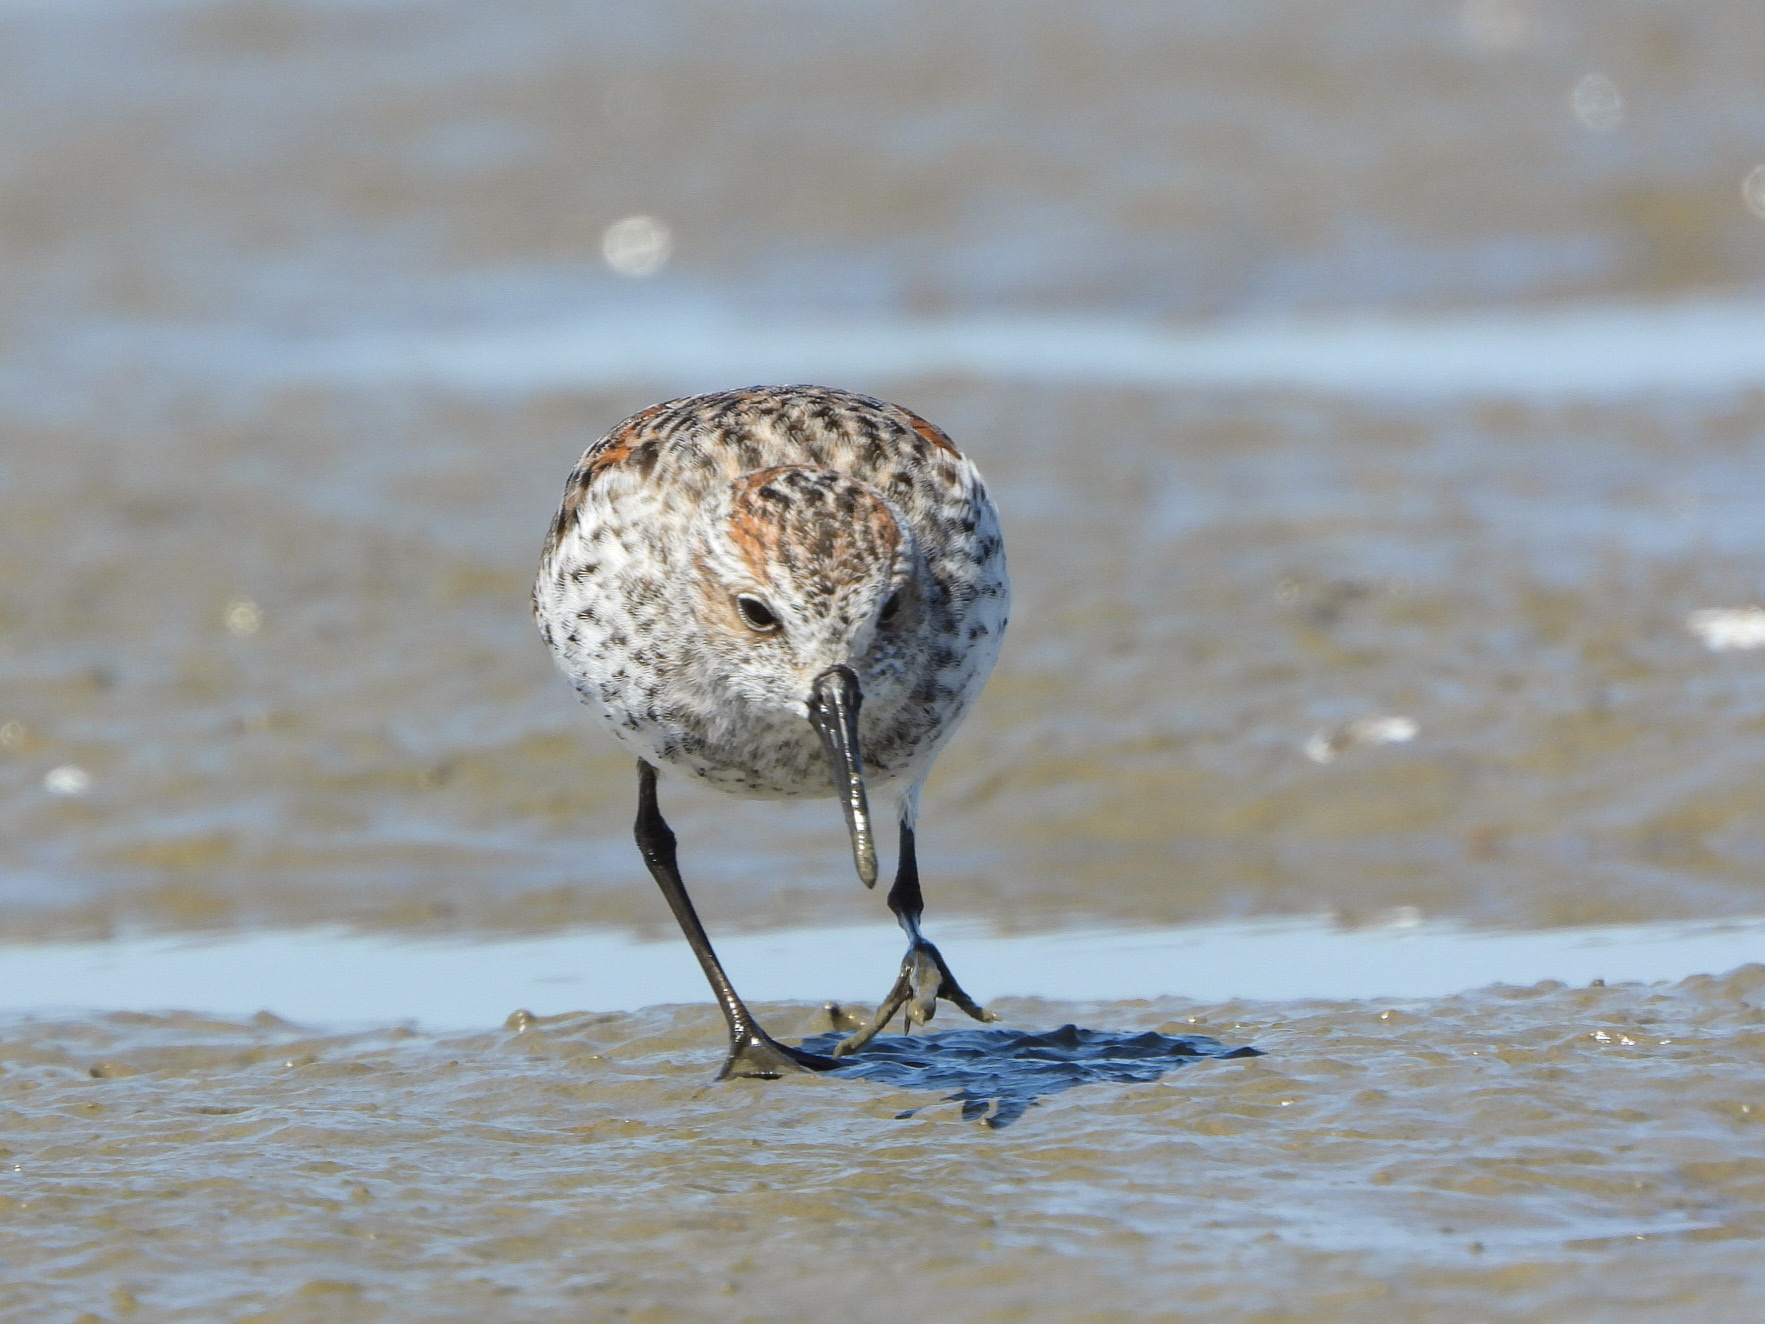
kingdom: Animalia
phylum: Chordata
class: Aves
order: Charadriiformes
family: Scolopacidae
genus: Calidris
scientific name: Calidris mauri
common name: Western sandpiper
